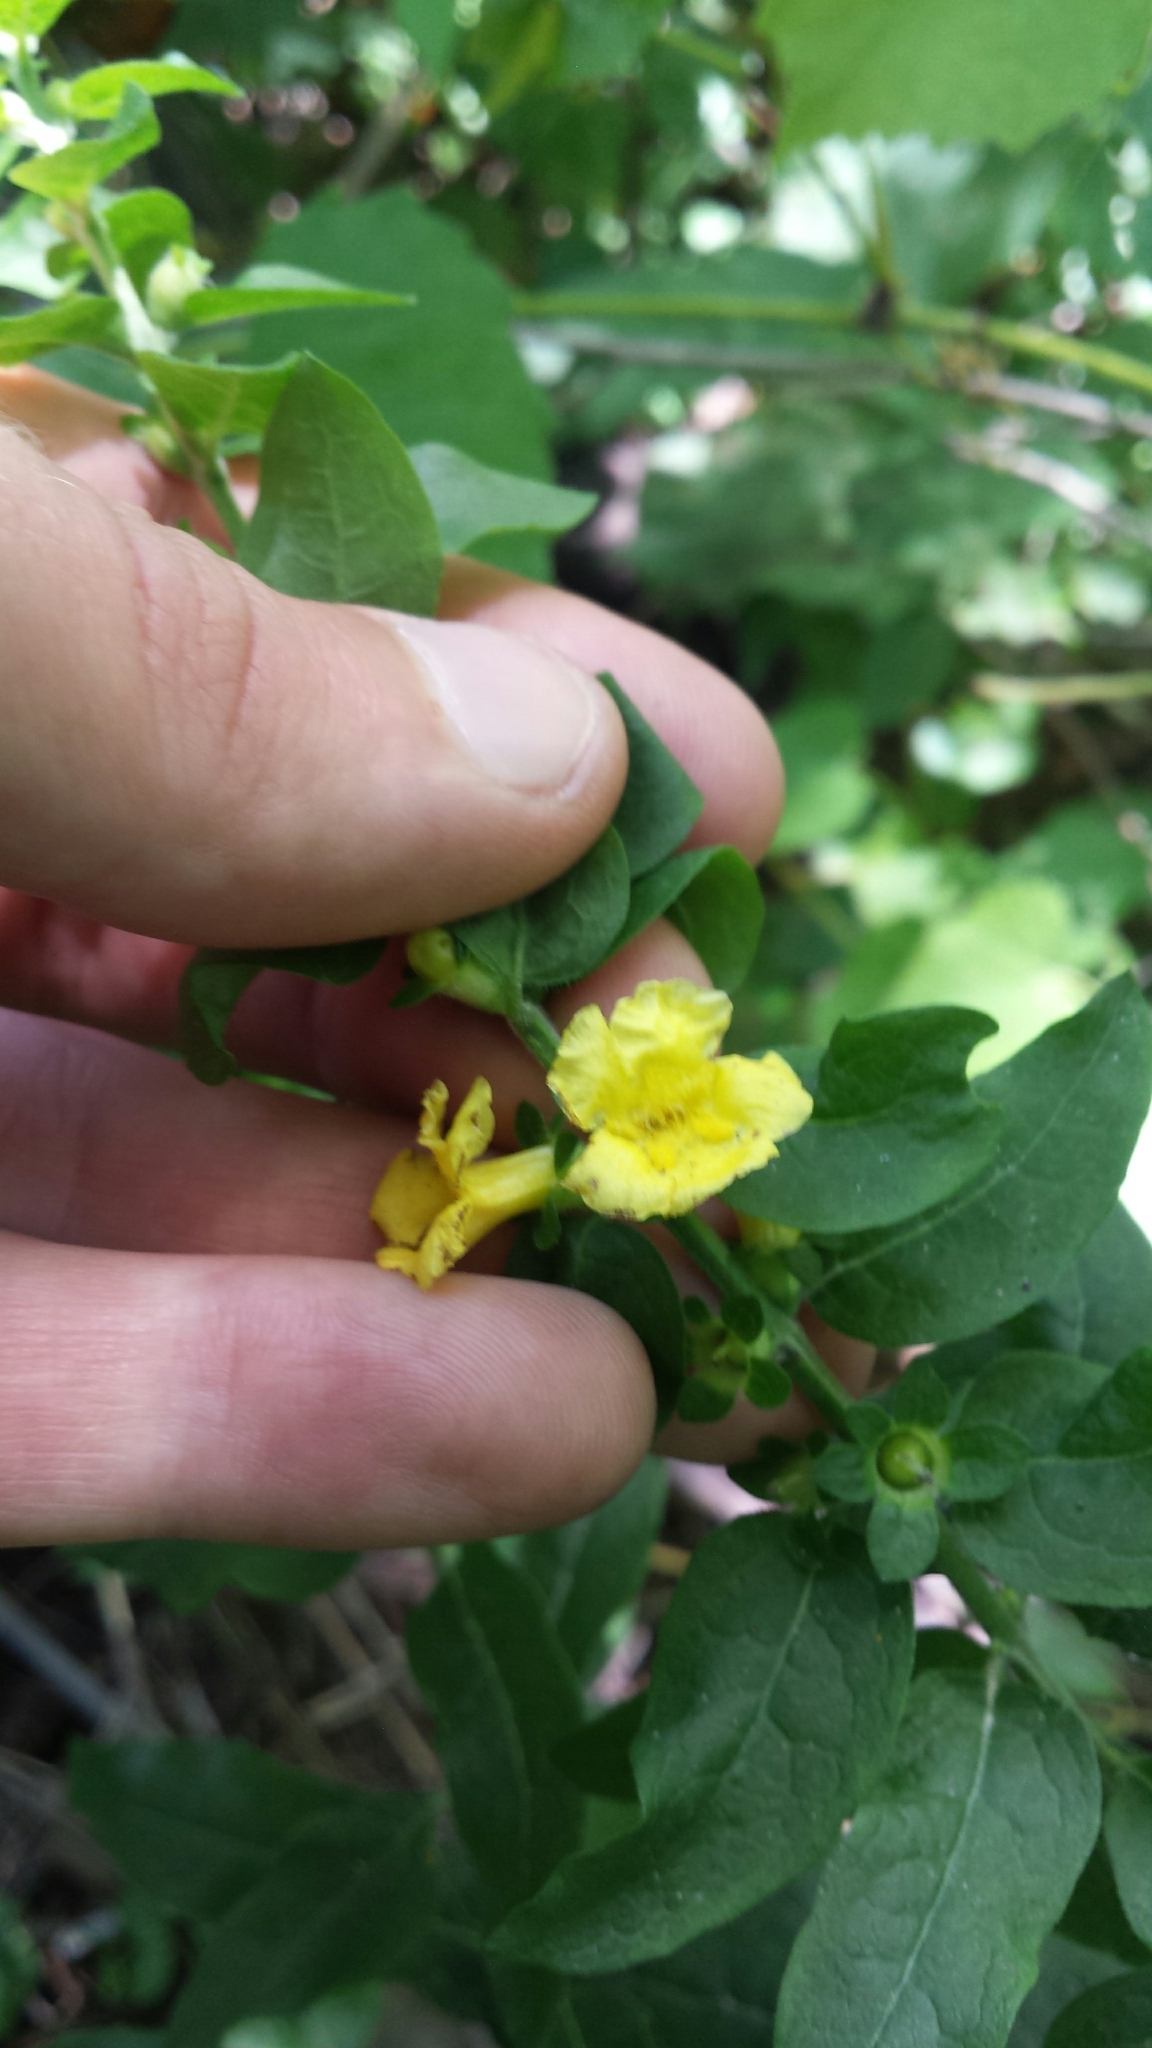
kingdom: Plantae
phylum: Tracheophyta
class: Magnoliopsida
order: Lamiales
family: Orobanchaceae
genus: Dasistoma
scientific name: Dasistoma macrophyllum
